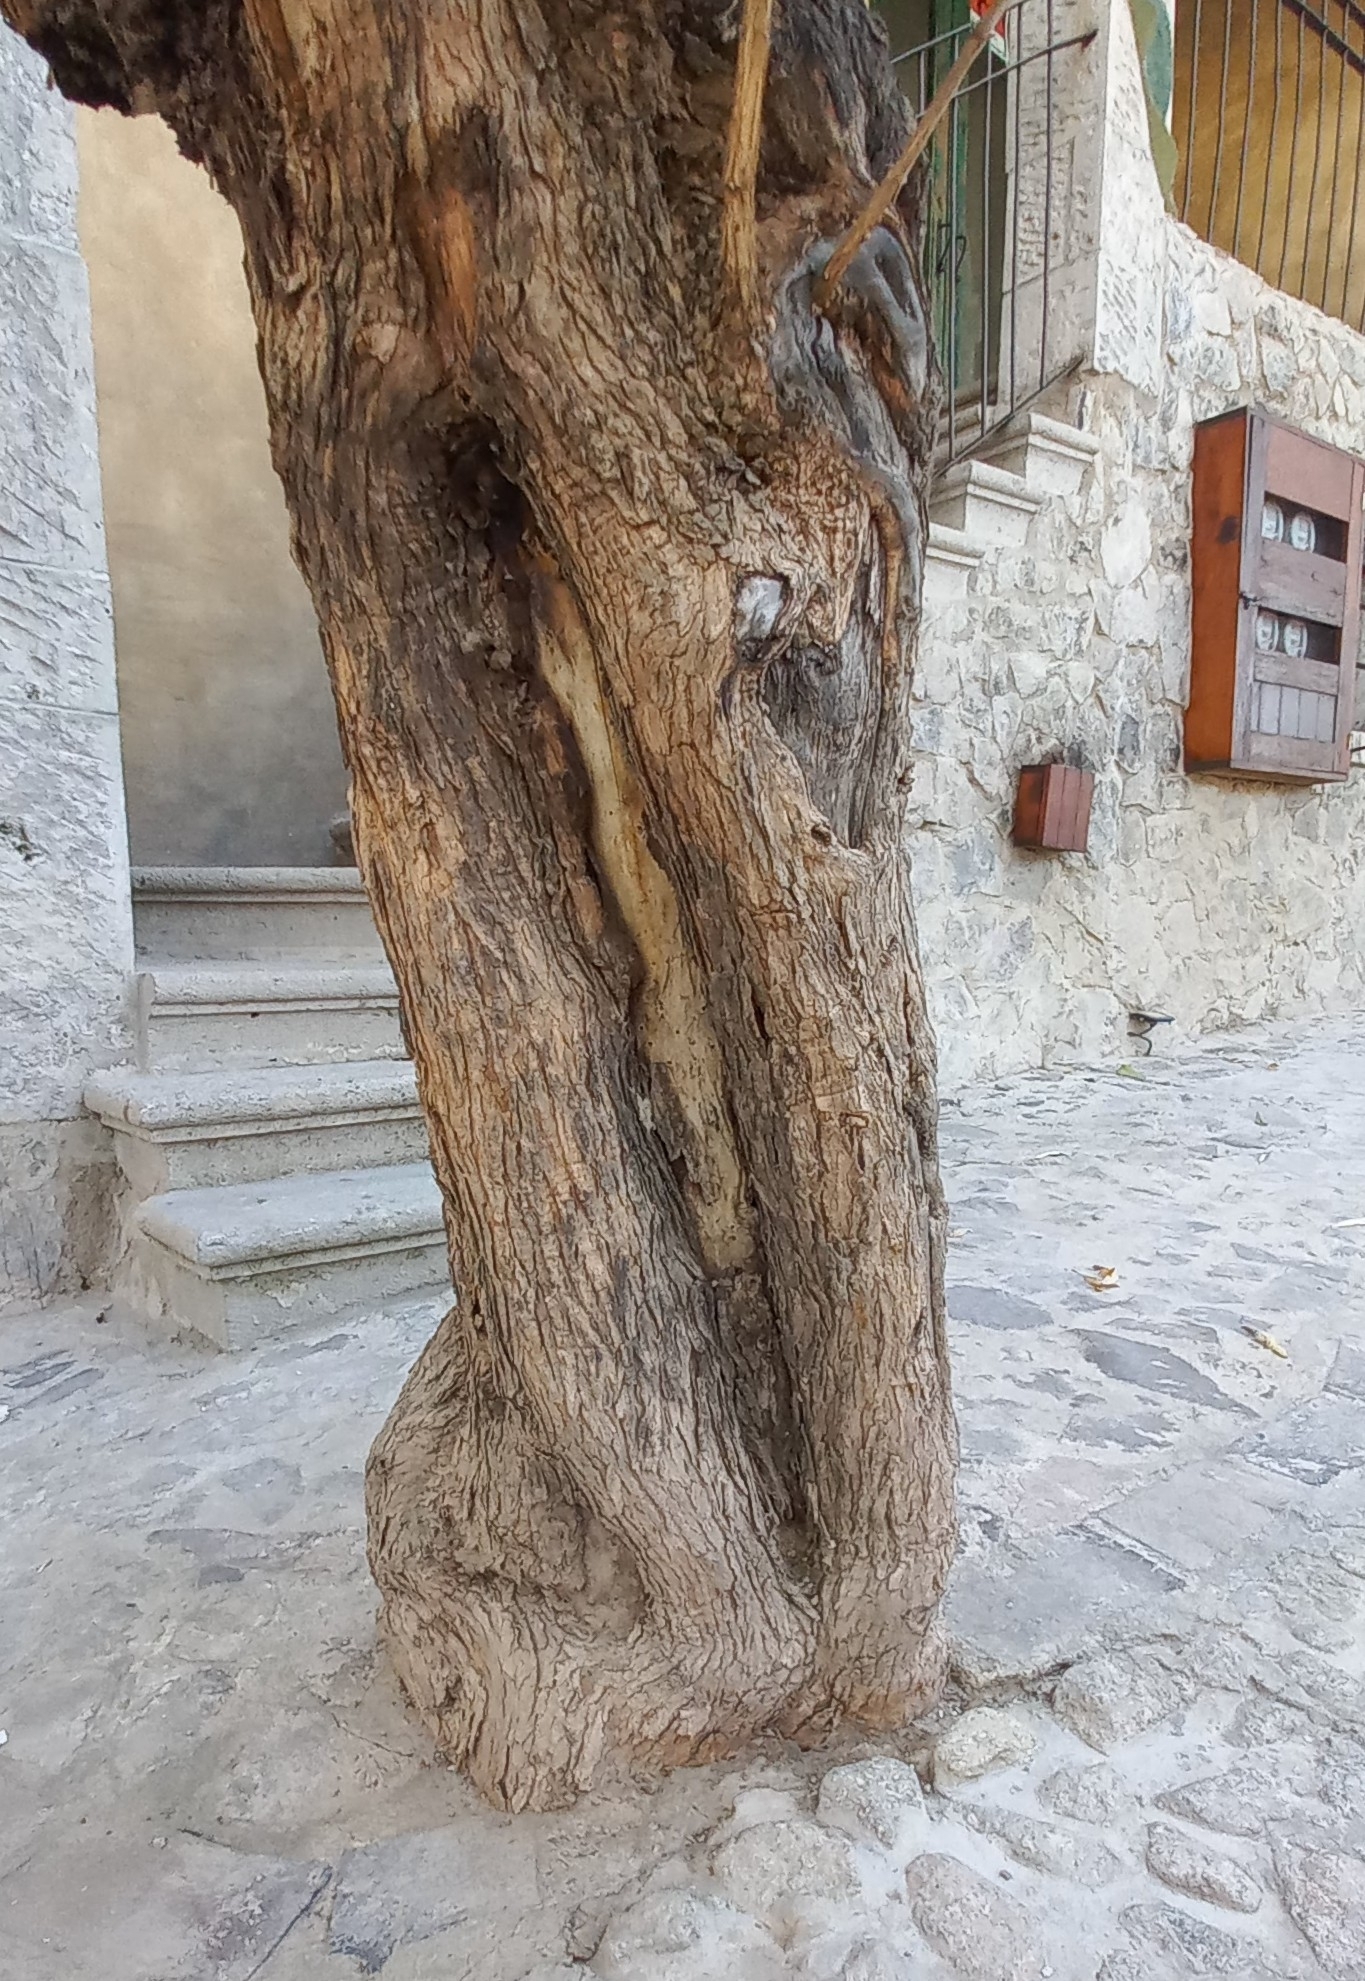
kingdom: Plantae
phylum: Tracheophyta
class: Magnoliopsida
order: Lamiales
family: Scrophulariaceae
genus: Buddleja
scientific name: Buddleja cordata
